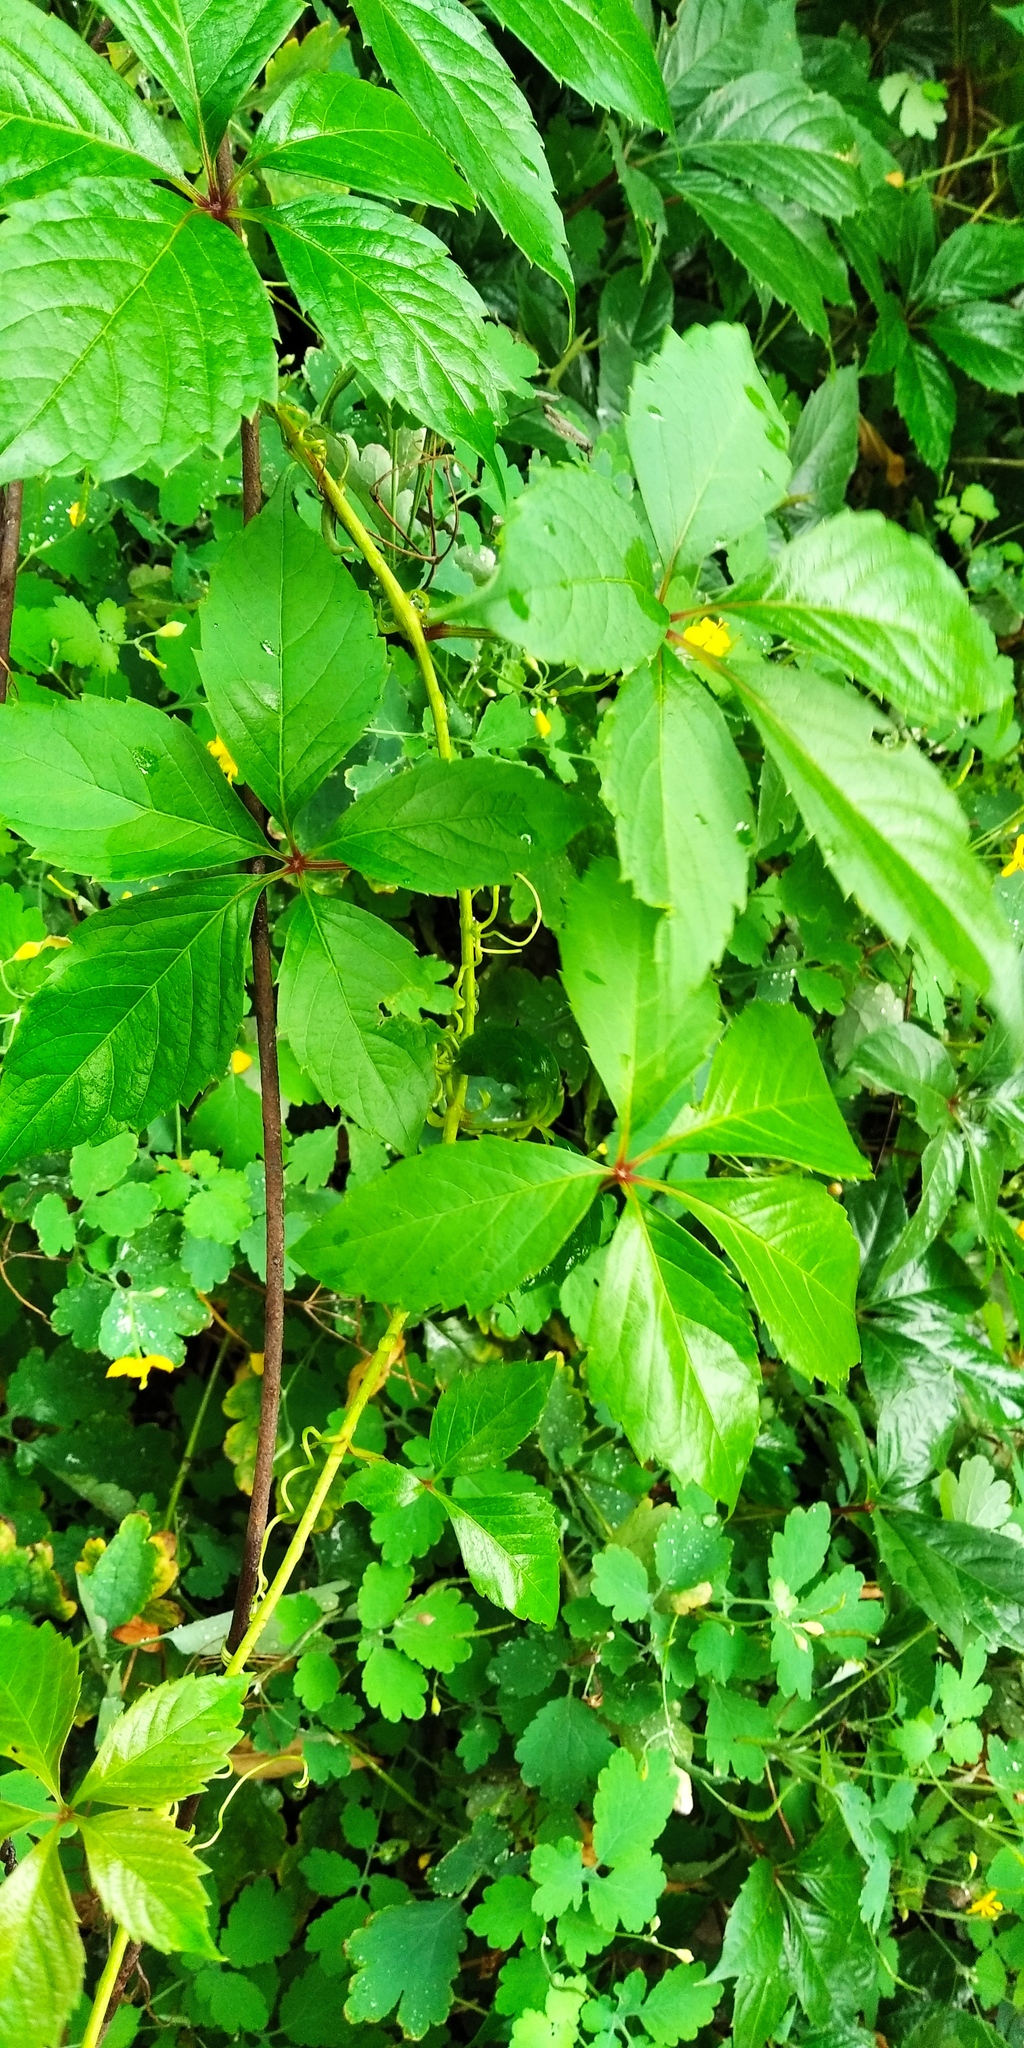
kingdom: Plantae
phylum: Tracheophyta
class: Magnoliopsida
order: Vitales
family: Vitaceae
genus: Parthenocissus
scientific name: Parthenocissus inserta
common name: False virginia-creeper
